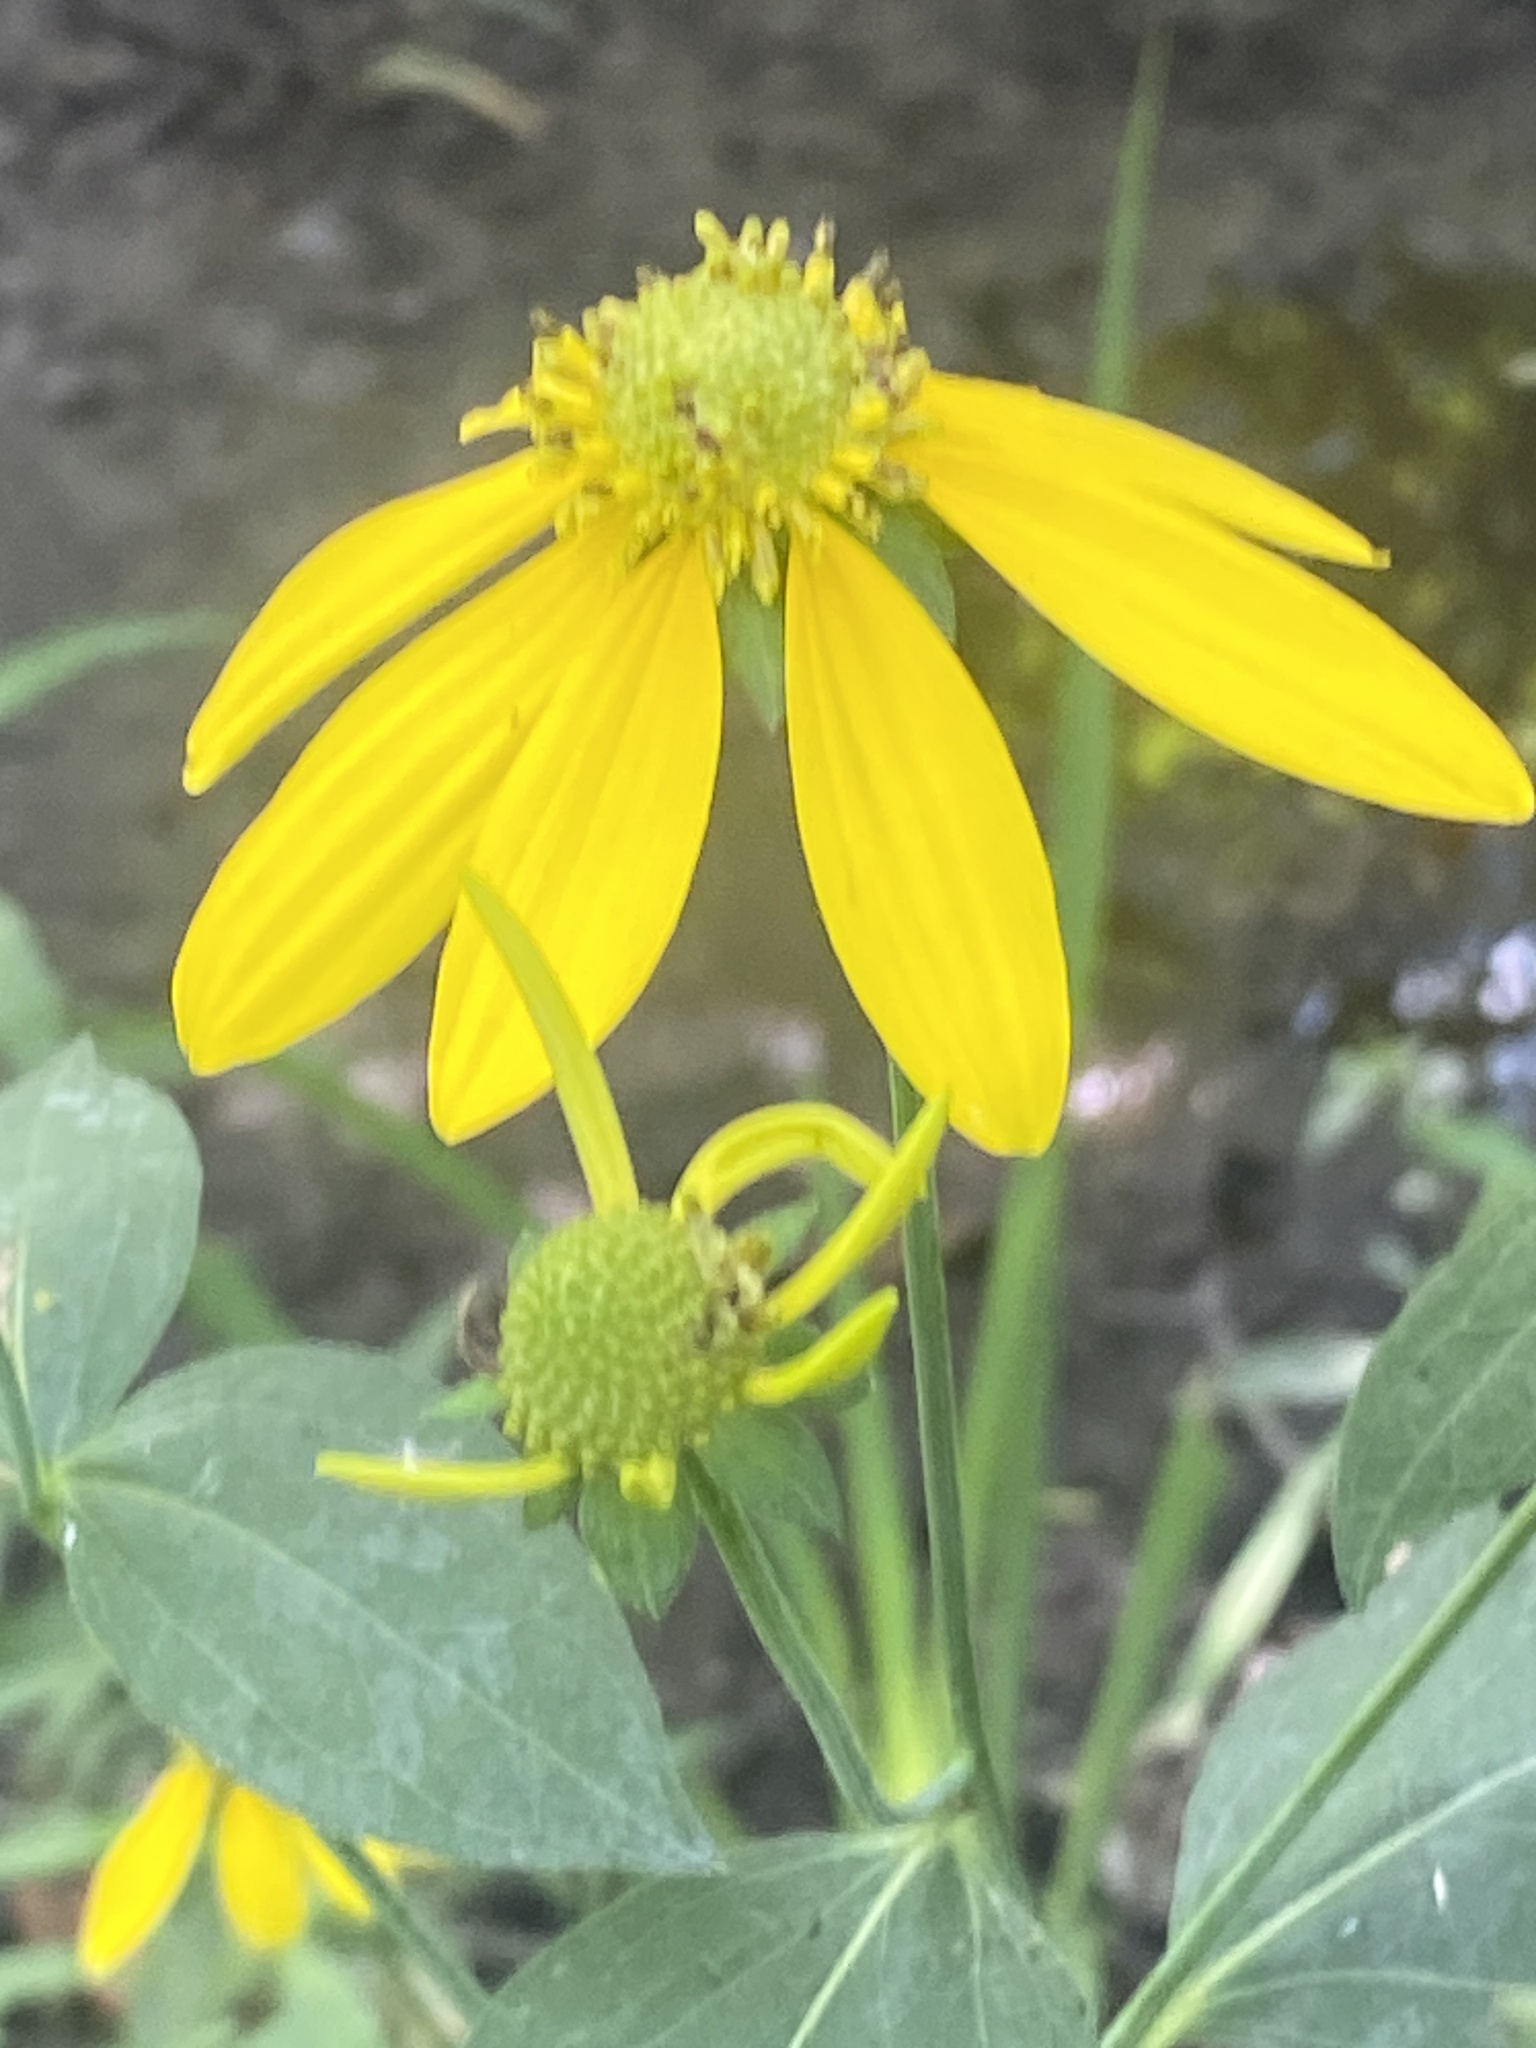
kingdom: Plantae
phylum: Tracheophyta
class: Magnoliopsida
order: Asterales
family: Asteraceae
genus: Rudbeckia
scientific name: Rudbeckia laciniata
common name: Coneflower
